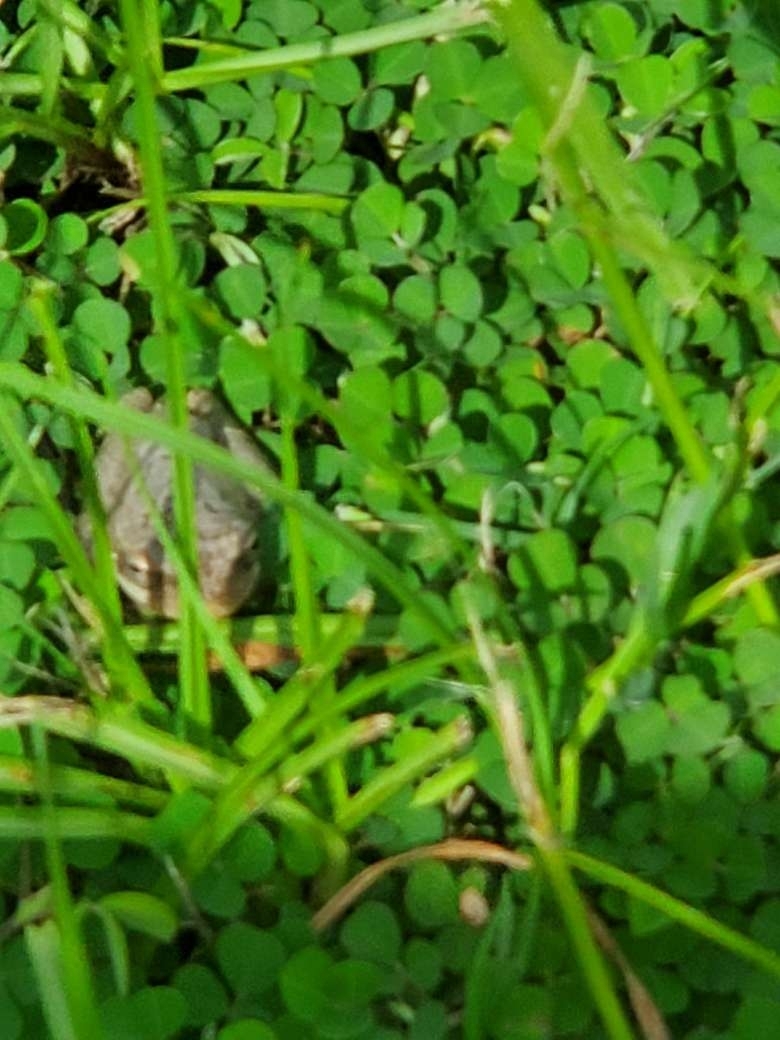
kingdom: Animalia
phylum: Chordata
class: Amphibia
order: Anura
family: Hylidae
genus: Dryophytes
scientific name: Dryophytes squirellus
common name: Squirrel treefrog
